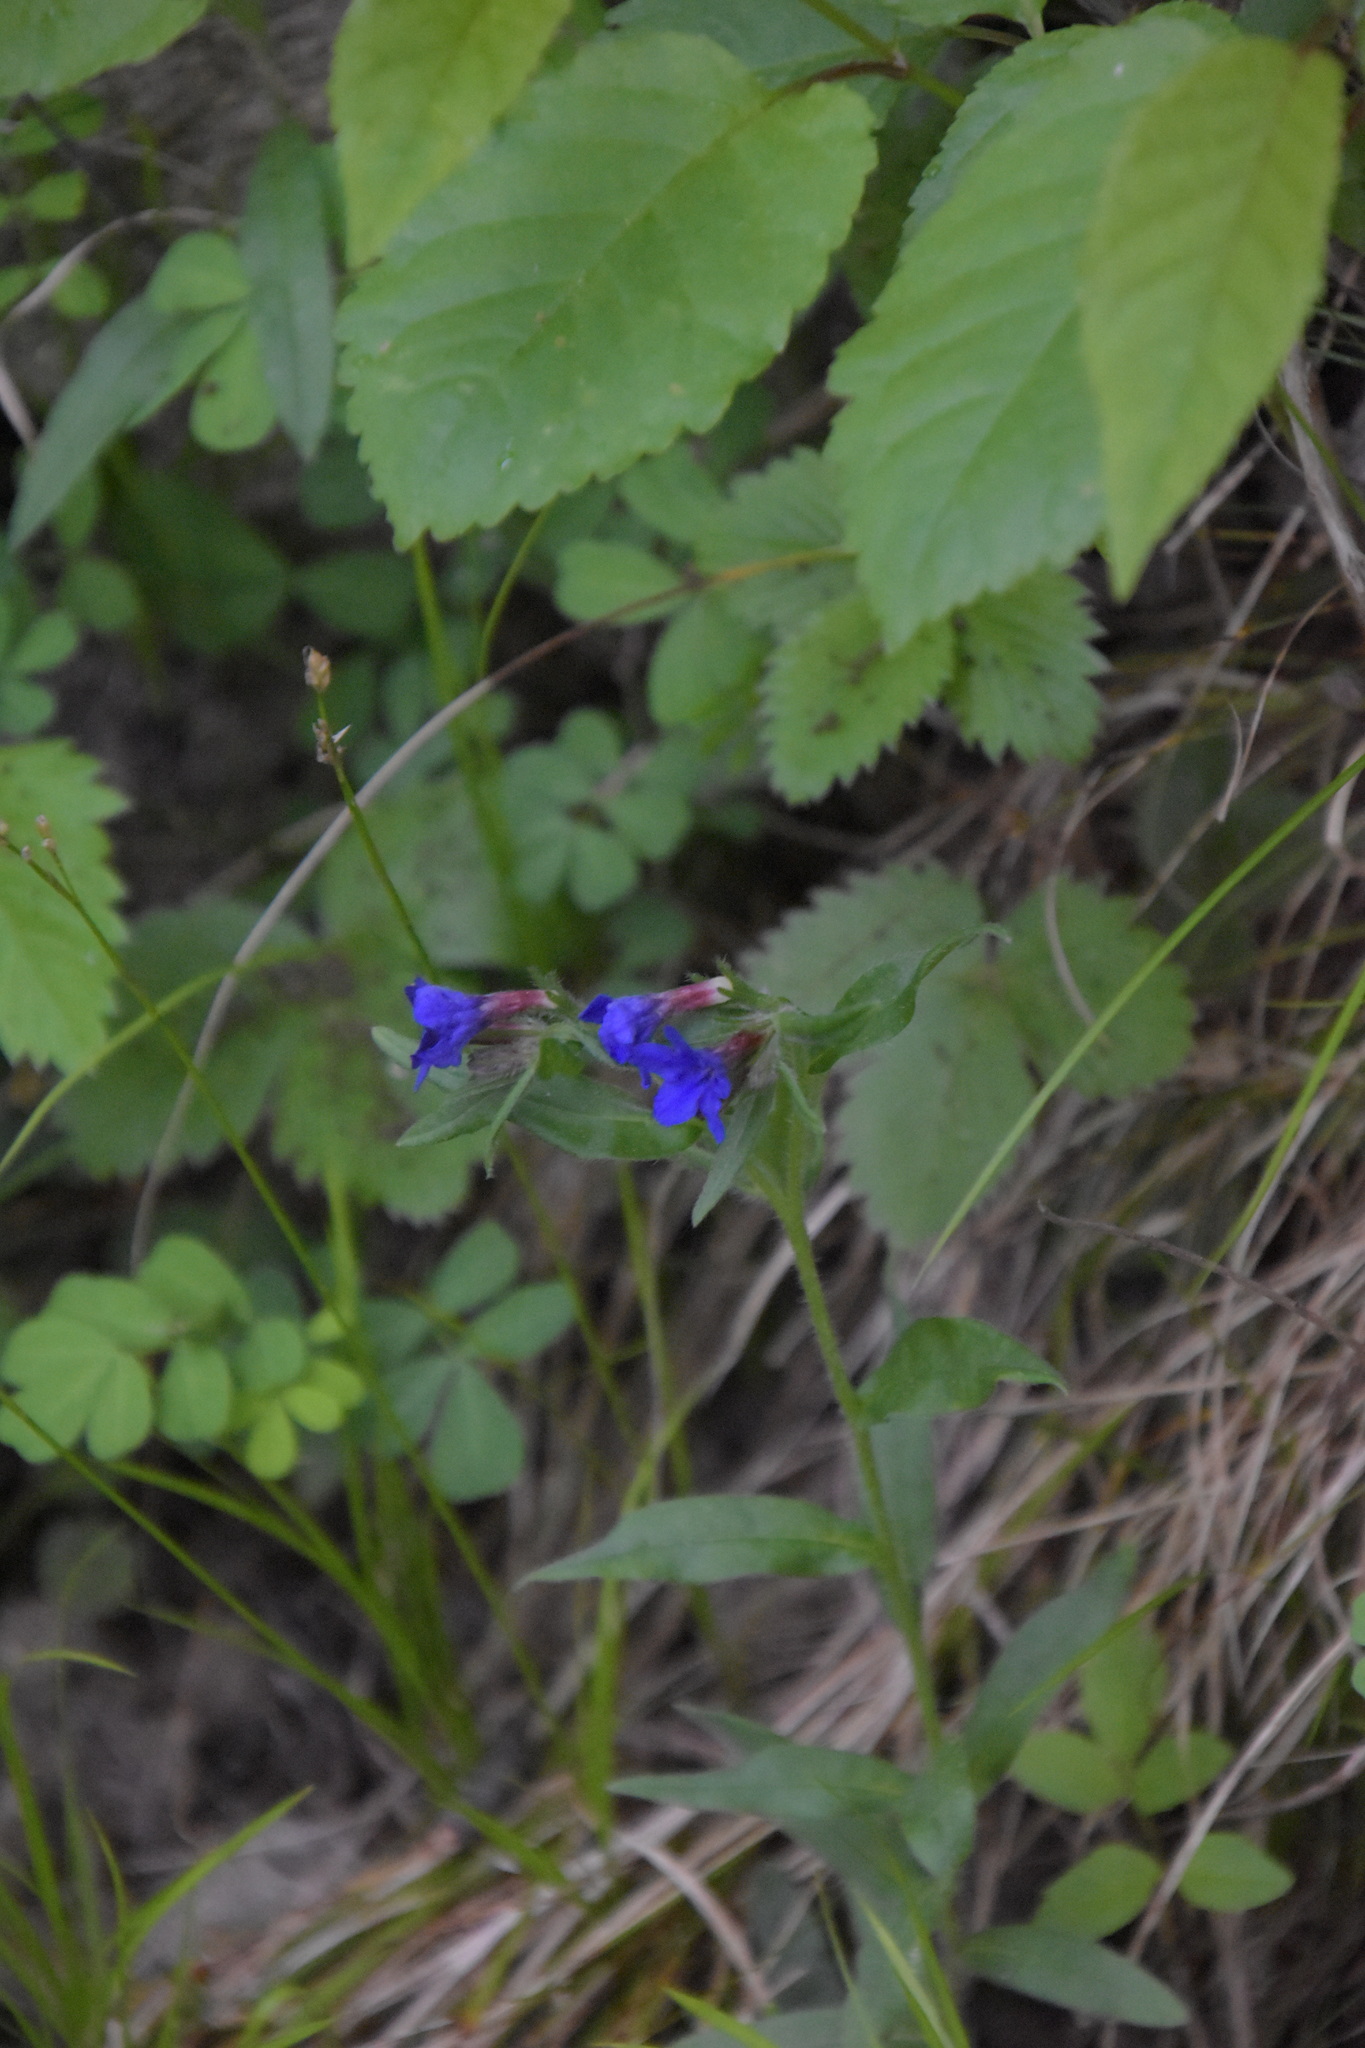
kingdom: Plantae
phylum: Tracheophyta
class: Magnoliopsida
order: Boraginales
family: Boraginaceae
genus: Aegonychon
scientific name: Aegonychon purpurocaeruleum
